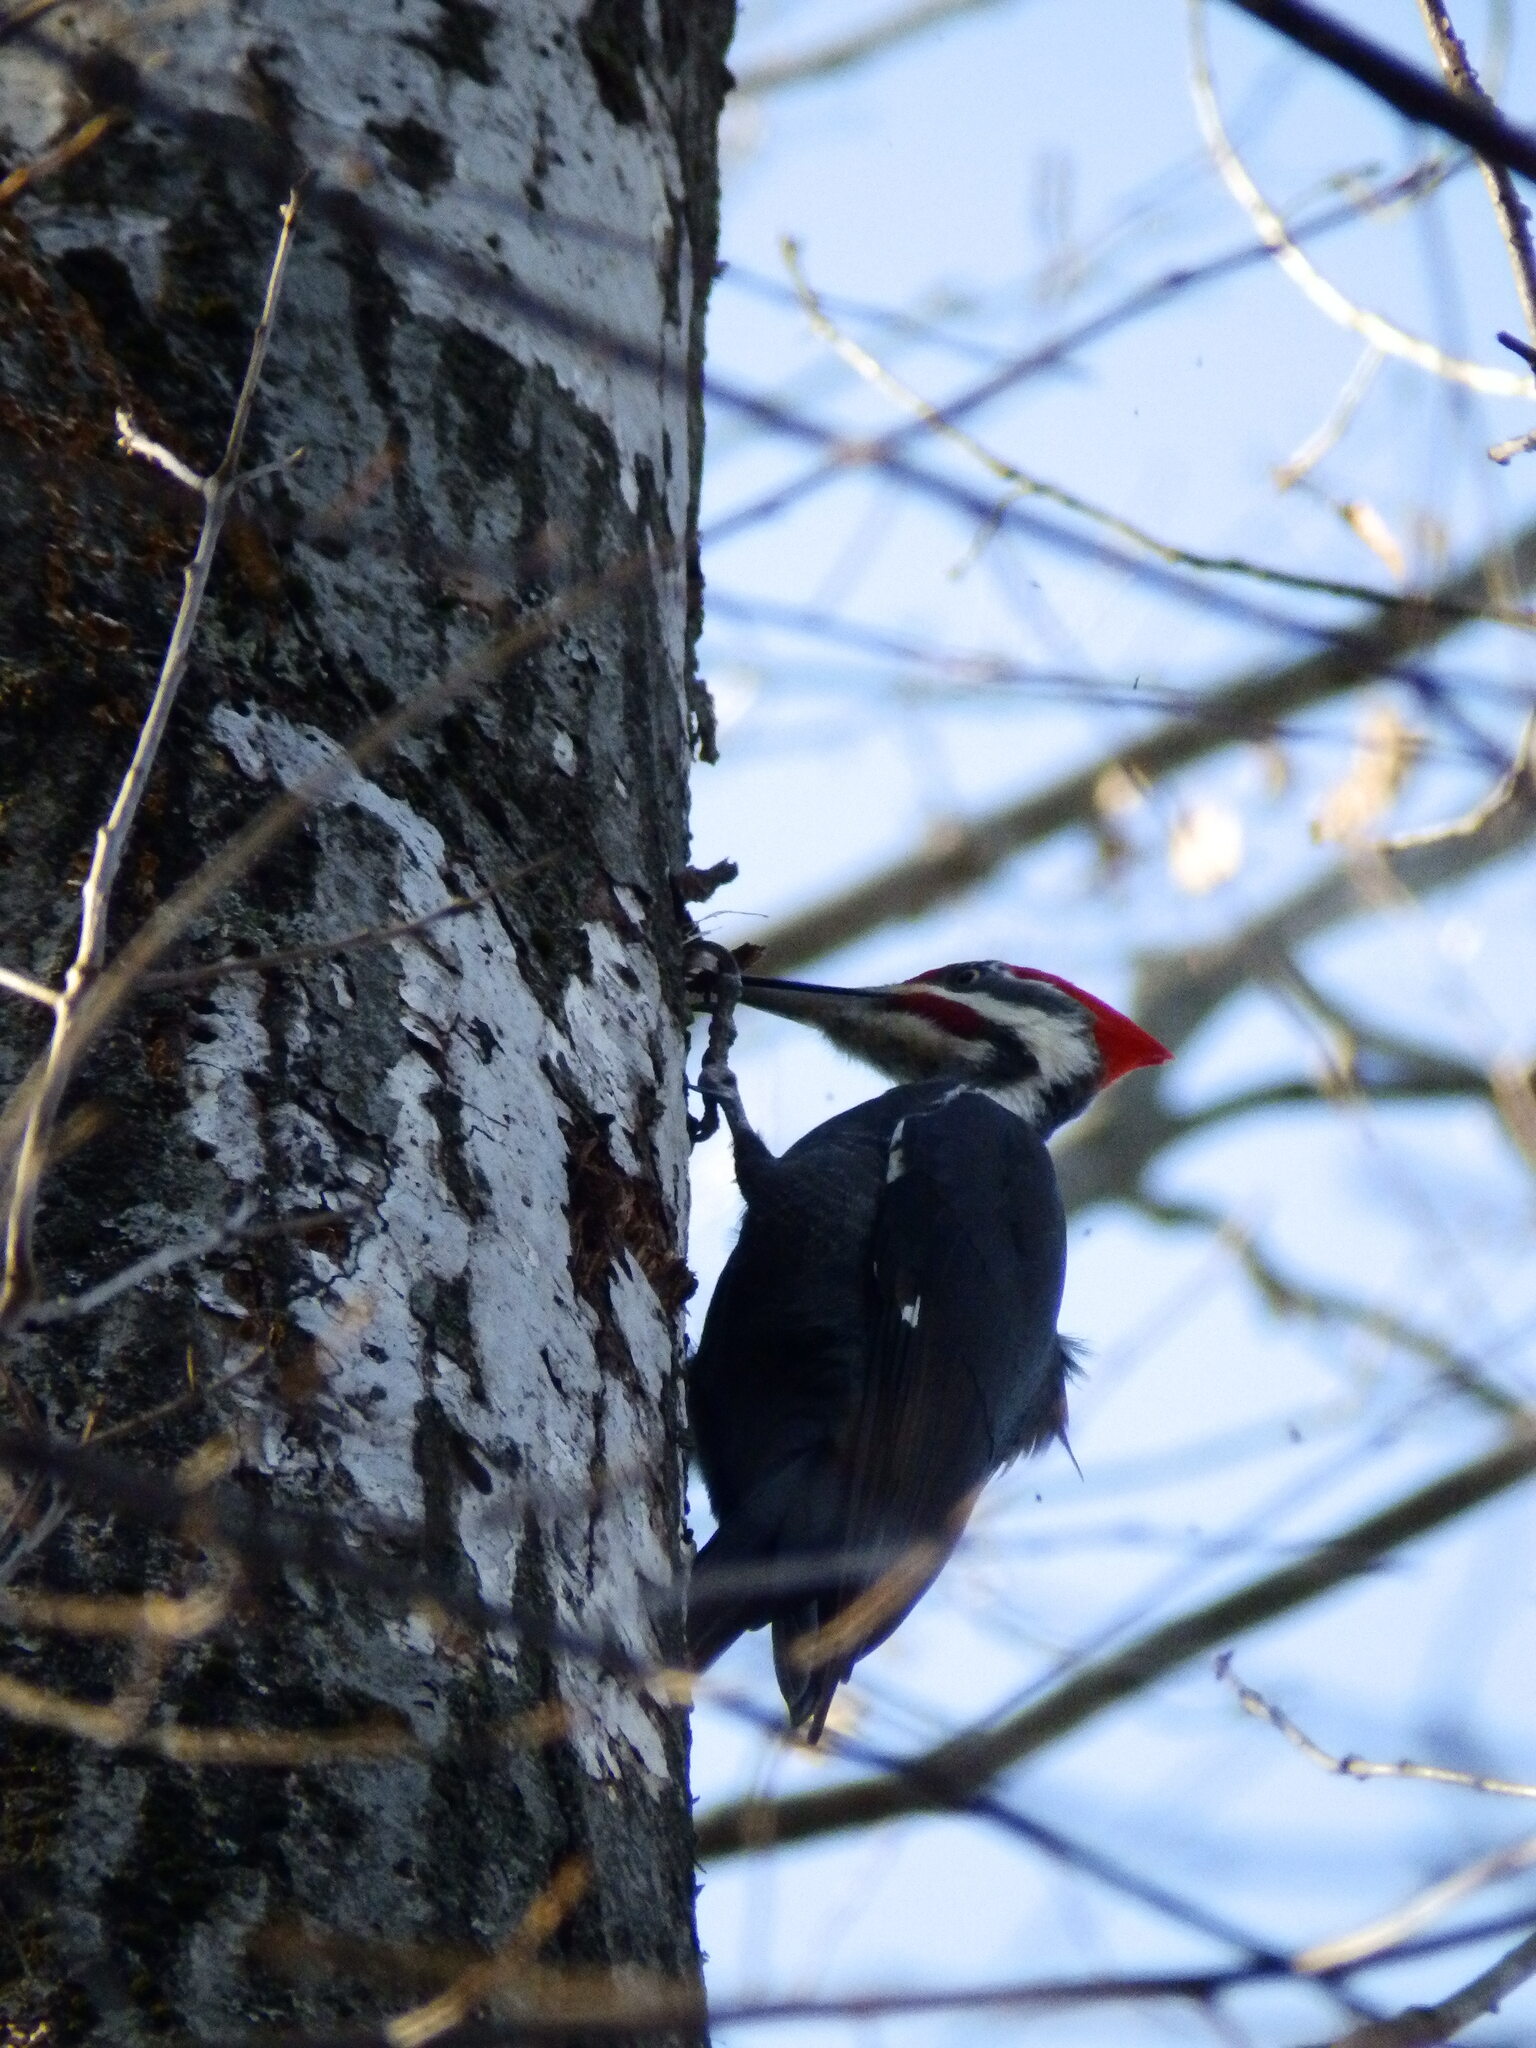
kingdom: Animalia
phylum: Chordata
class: Aves
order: Piciformes
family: Picidae
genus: Dryocopus
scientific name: Dryocopus pileatus
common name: Pileated woodpecker
